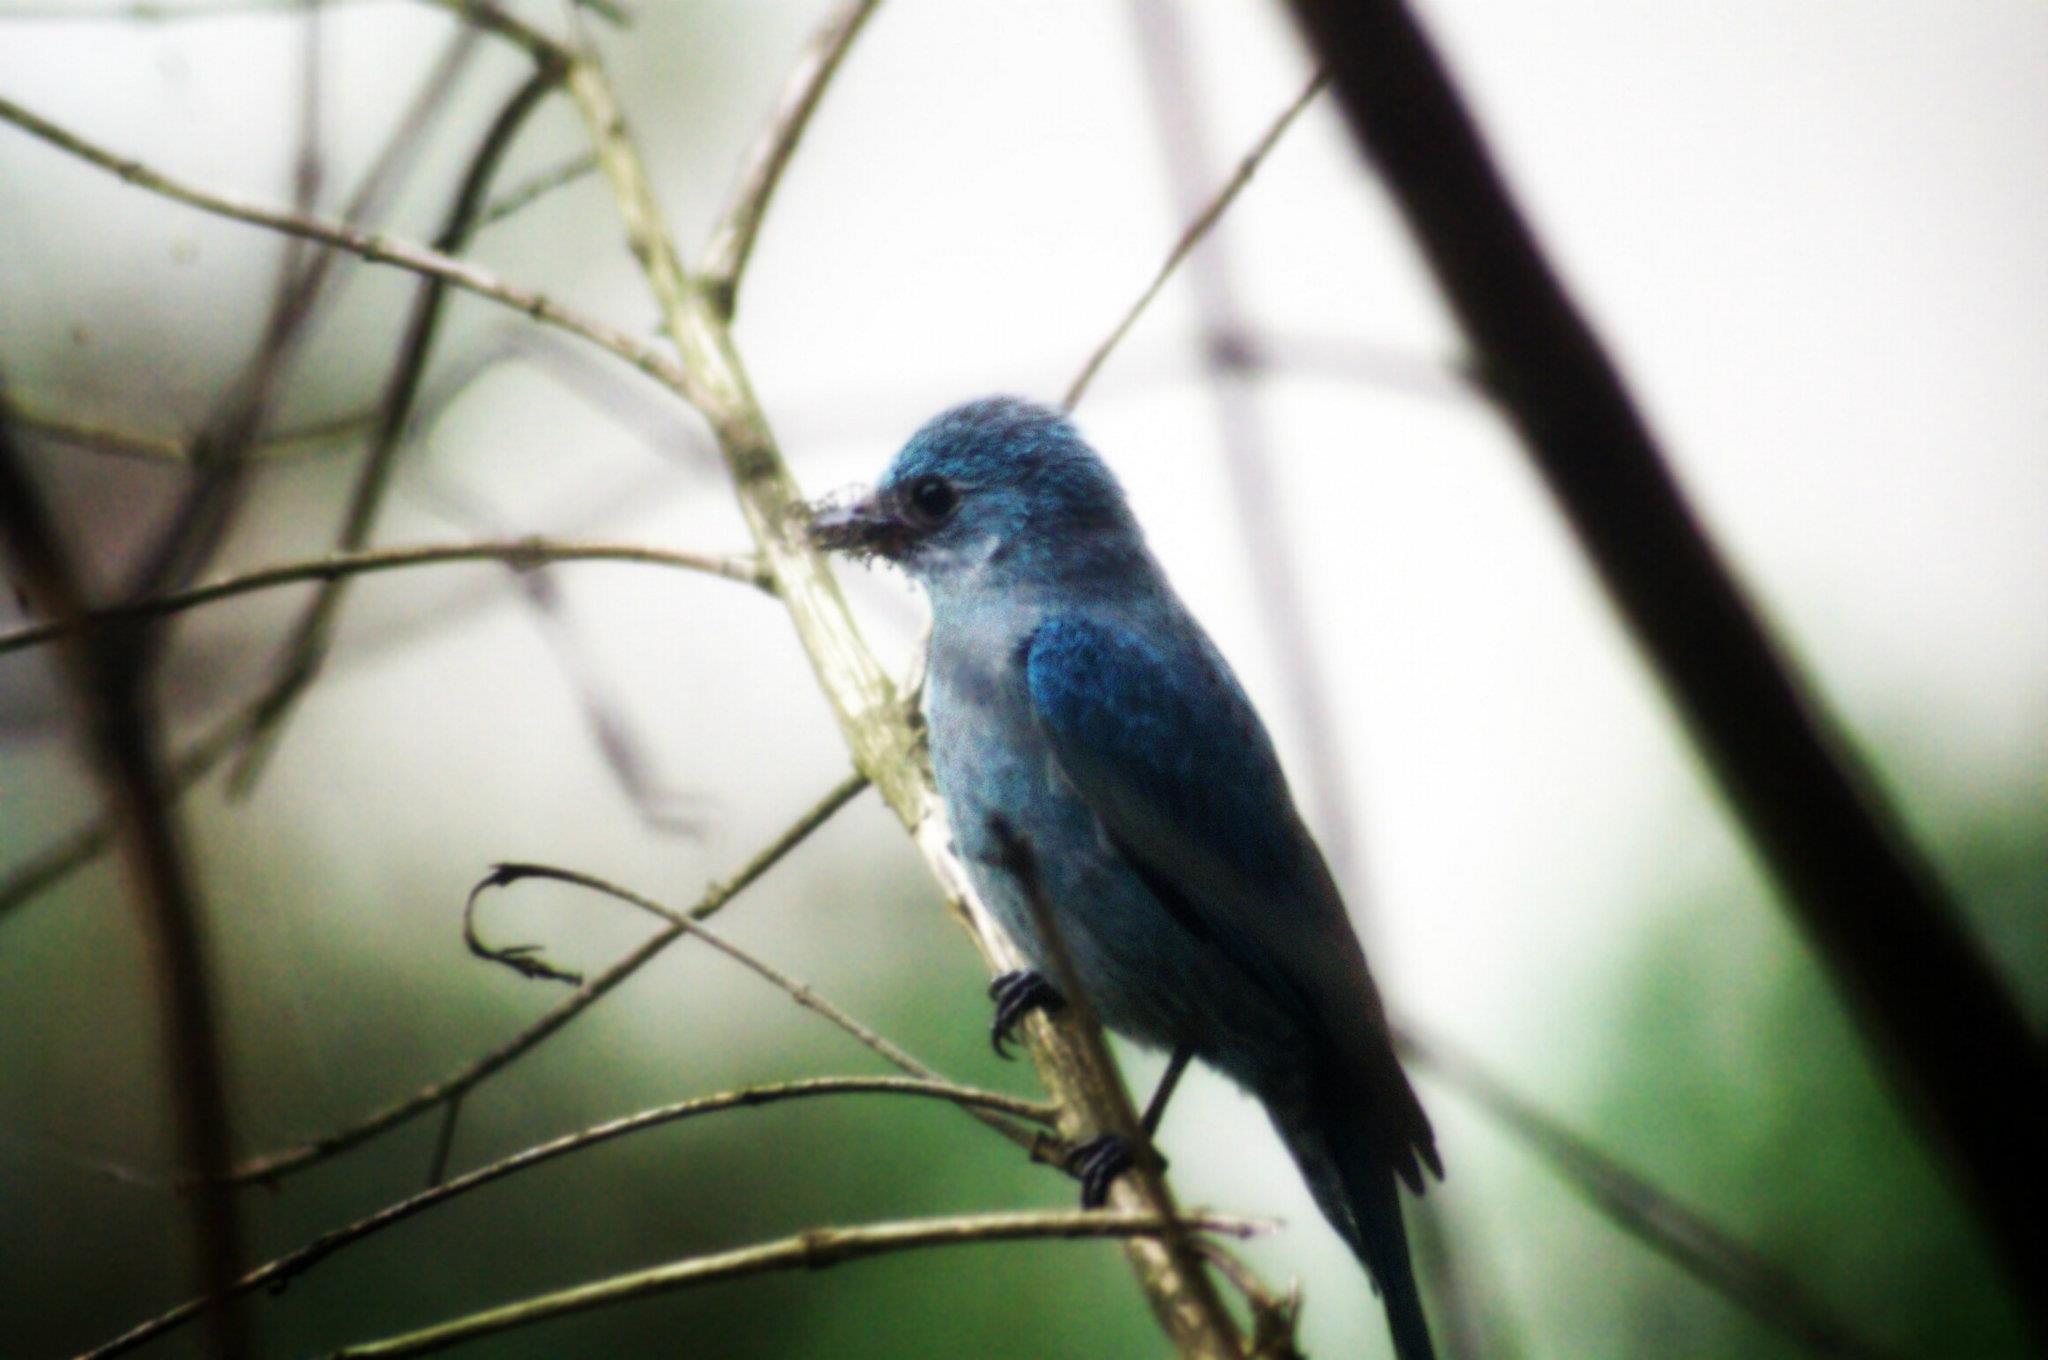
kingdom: Animalia
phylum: Chordata
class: Aves
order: Passeriformes
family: Muscicapidae
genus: Eumyias
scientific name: Eumyias thalassinus
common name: Verditer flycatcher
